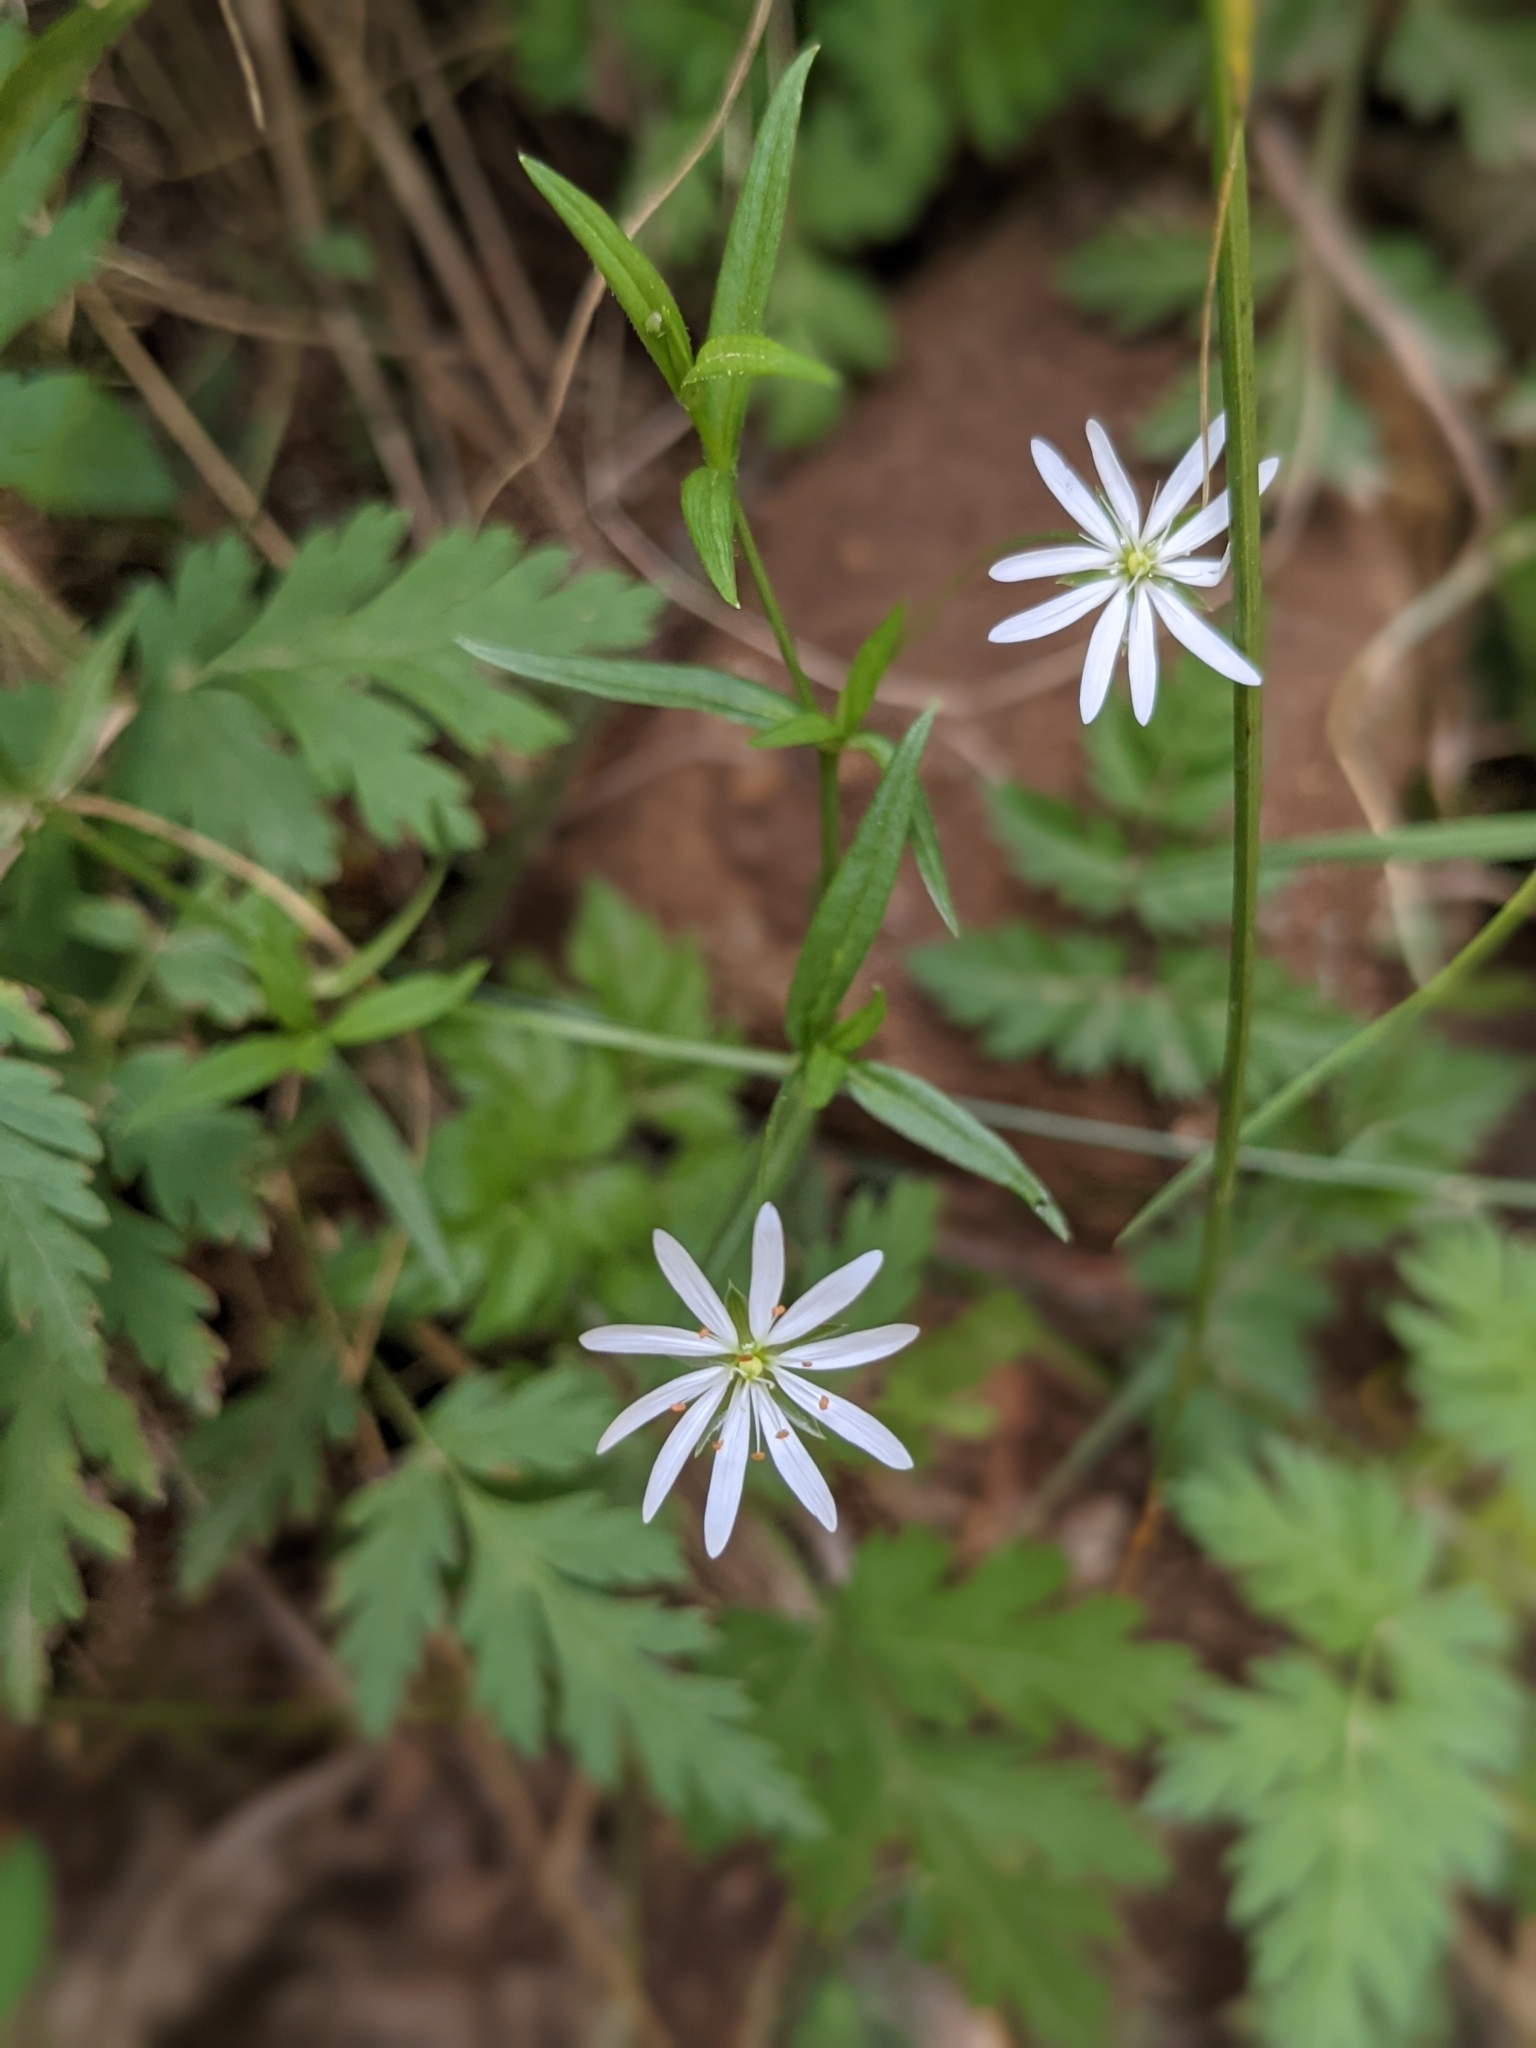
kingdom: Plantae
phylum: Tracheophyta
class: Magnoliopsida
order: Caryophyllales
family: Caryophyllaceae
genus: Stellaria
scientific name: Stellaria graminea
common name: Grass-like starwort
